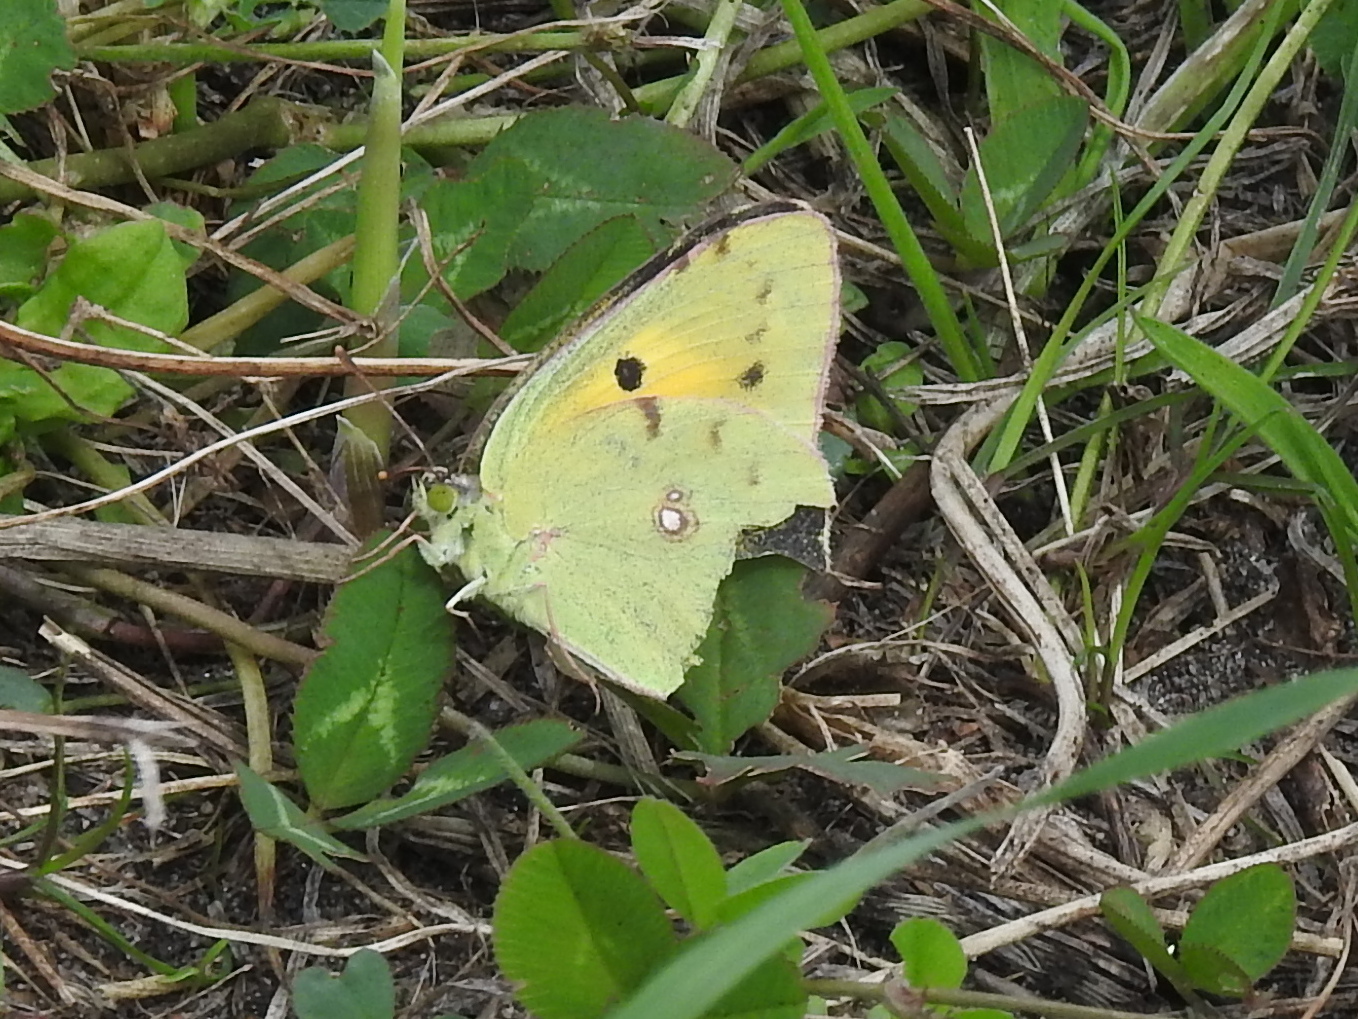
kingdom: Animalia
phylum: Arthropoda
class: Insecta
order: Lepidoptera
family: Pieridae
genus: Colias
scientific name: Colias croceus
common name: Clouded yellow
